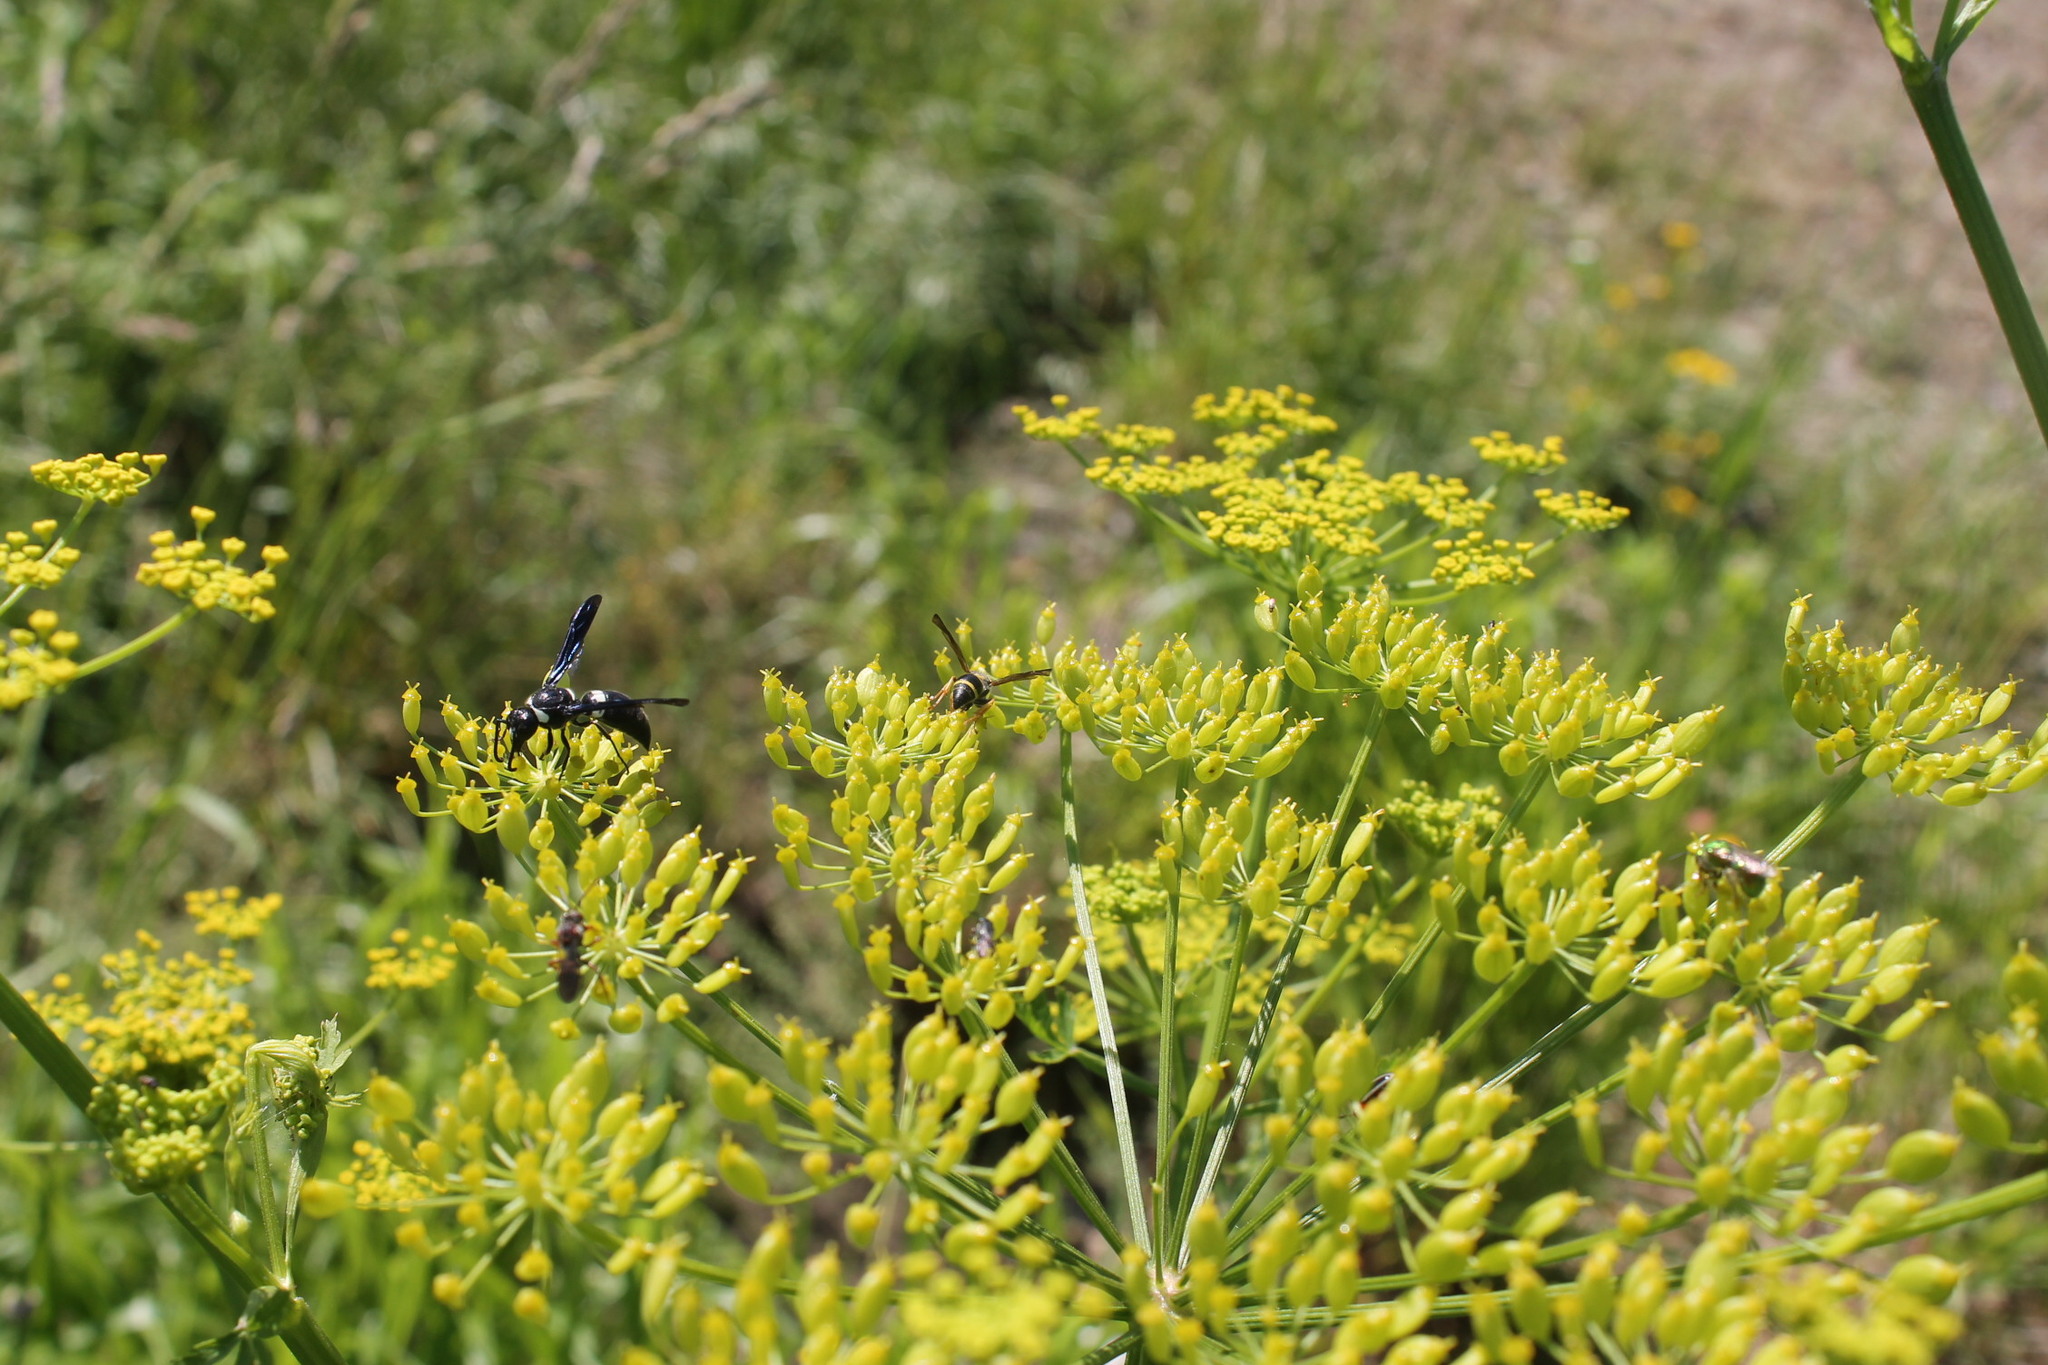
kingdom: Animalia
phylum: Arthropoda
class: Insecta
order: Hymenoptera
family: Eumenidae
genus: Monobia
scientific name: Monobia quadridens
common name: Four-toothed mason wasp
